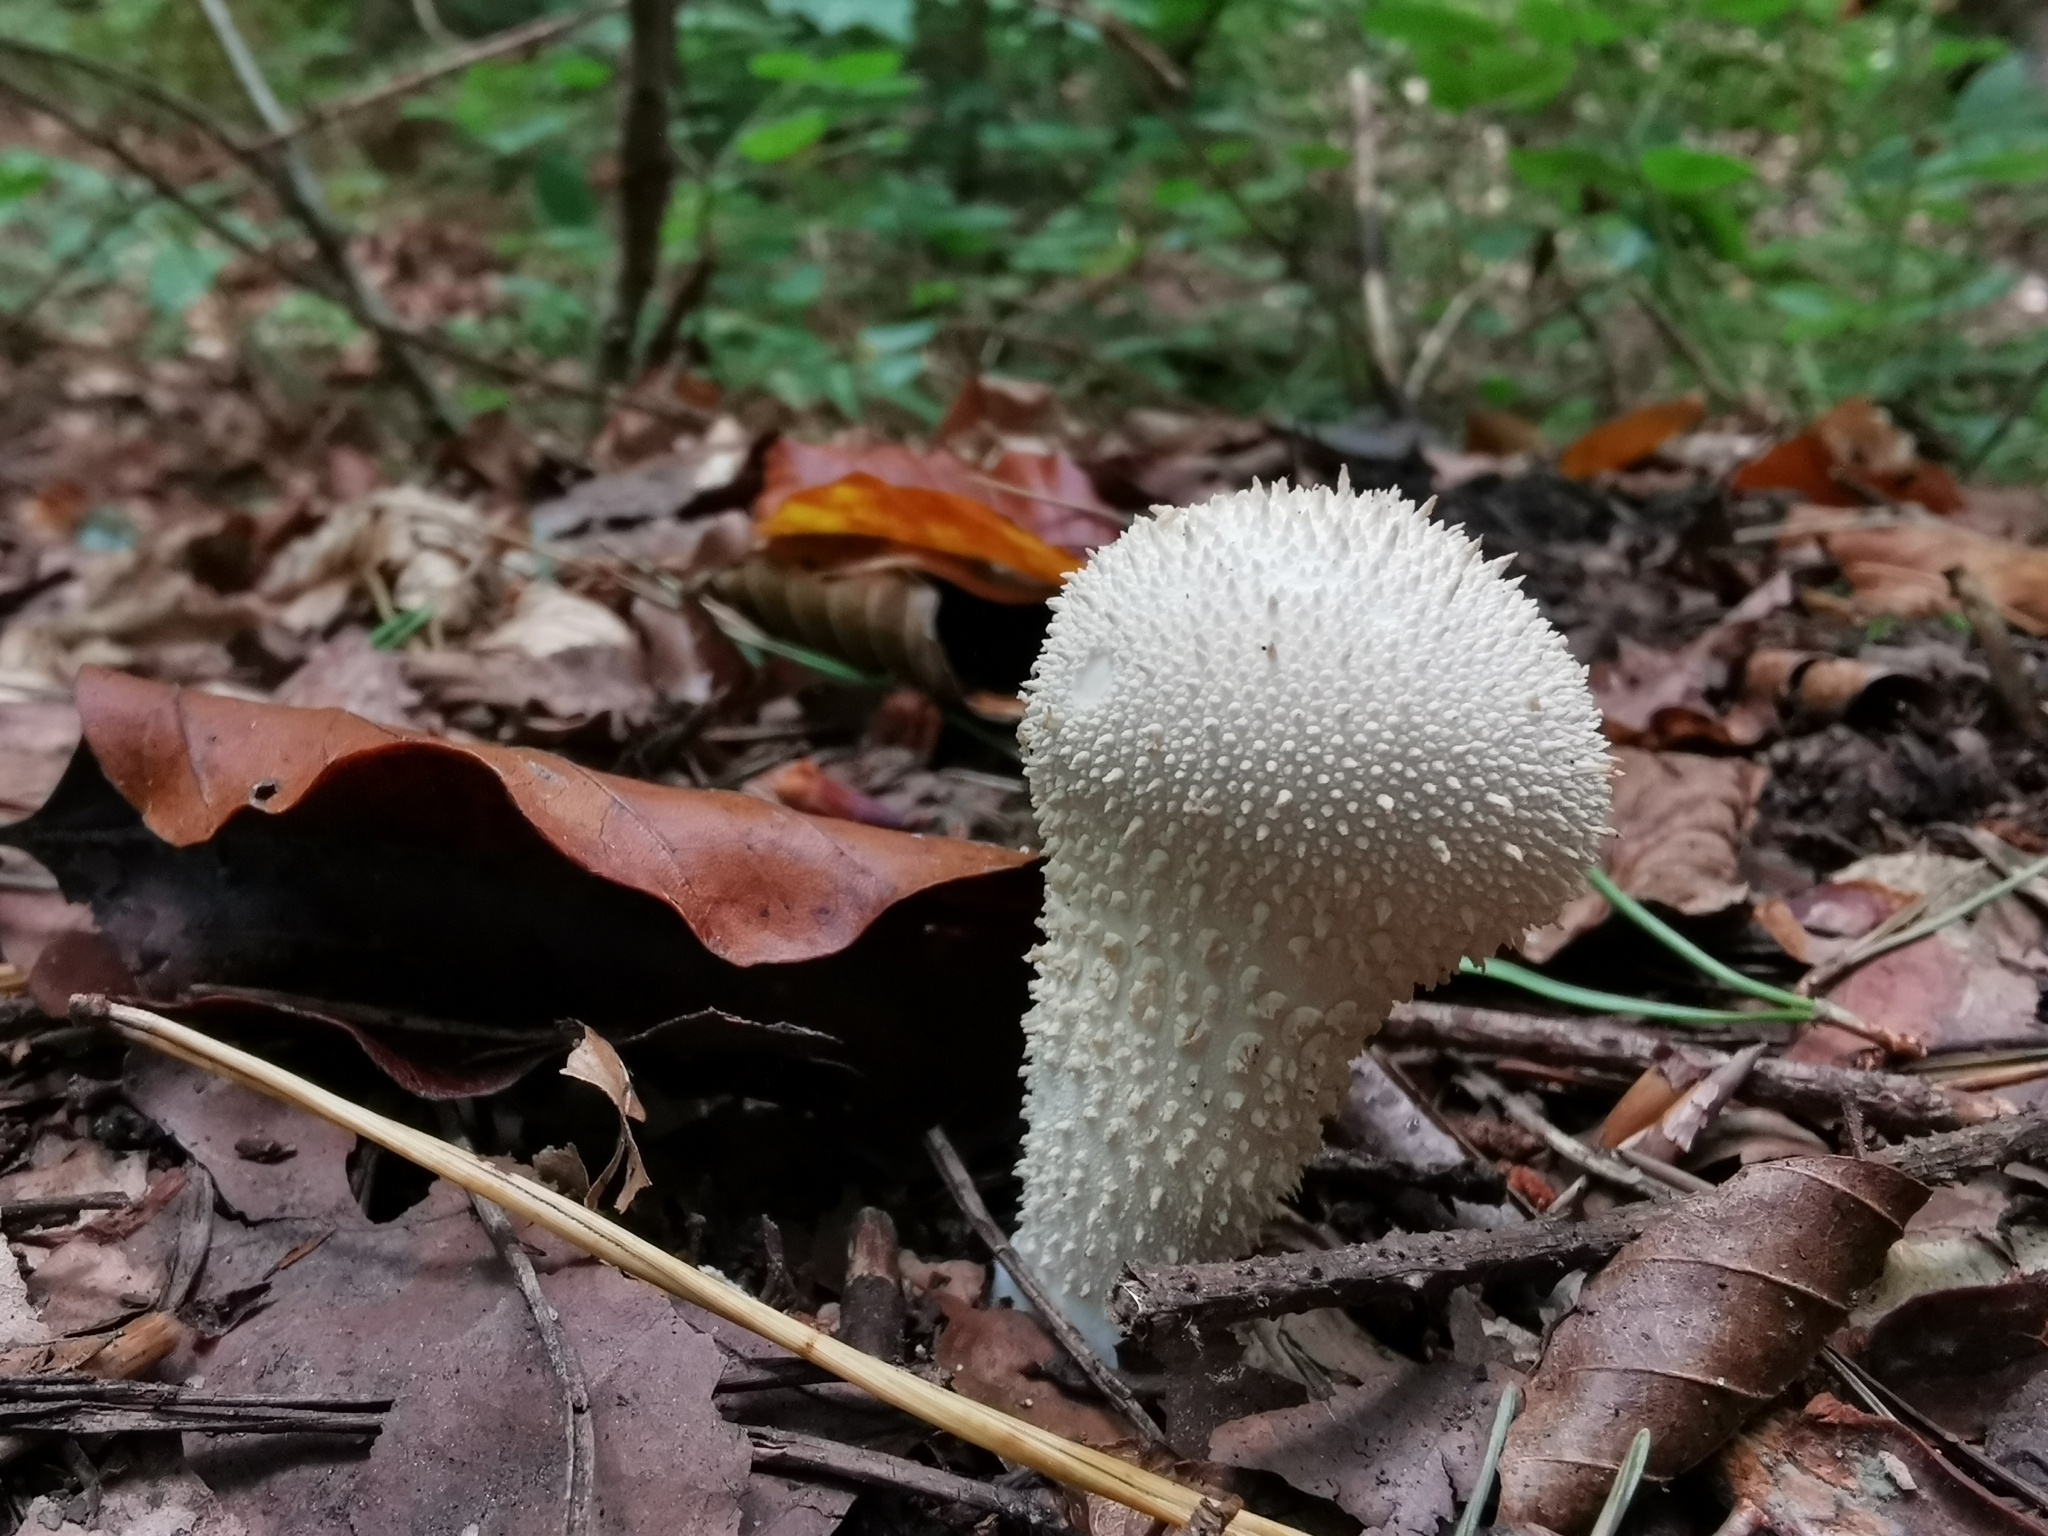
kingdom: Fungi
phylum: Basidiomycota
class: Agaricomycetes
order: Agaricales
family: Lycoperdaceae
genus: Lycoperdon
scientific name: Lycoperdon perlatum
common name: Common puffball
